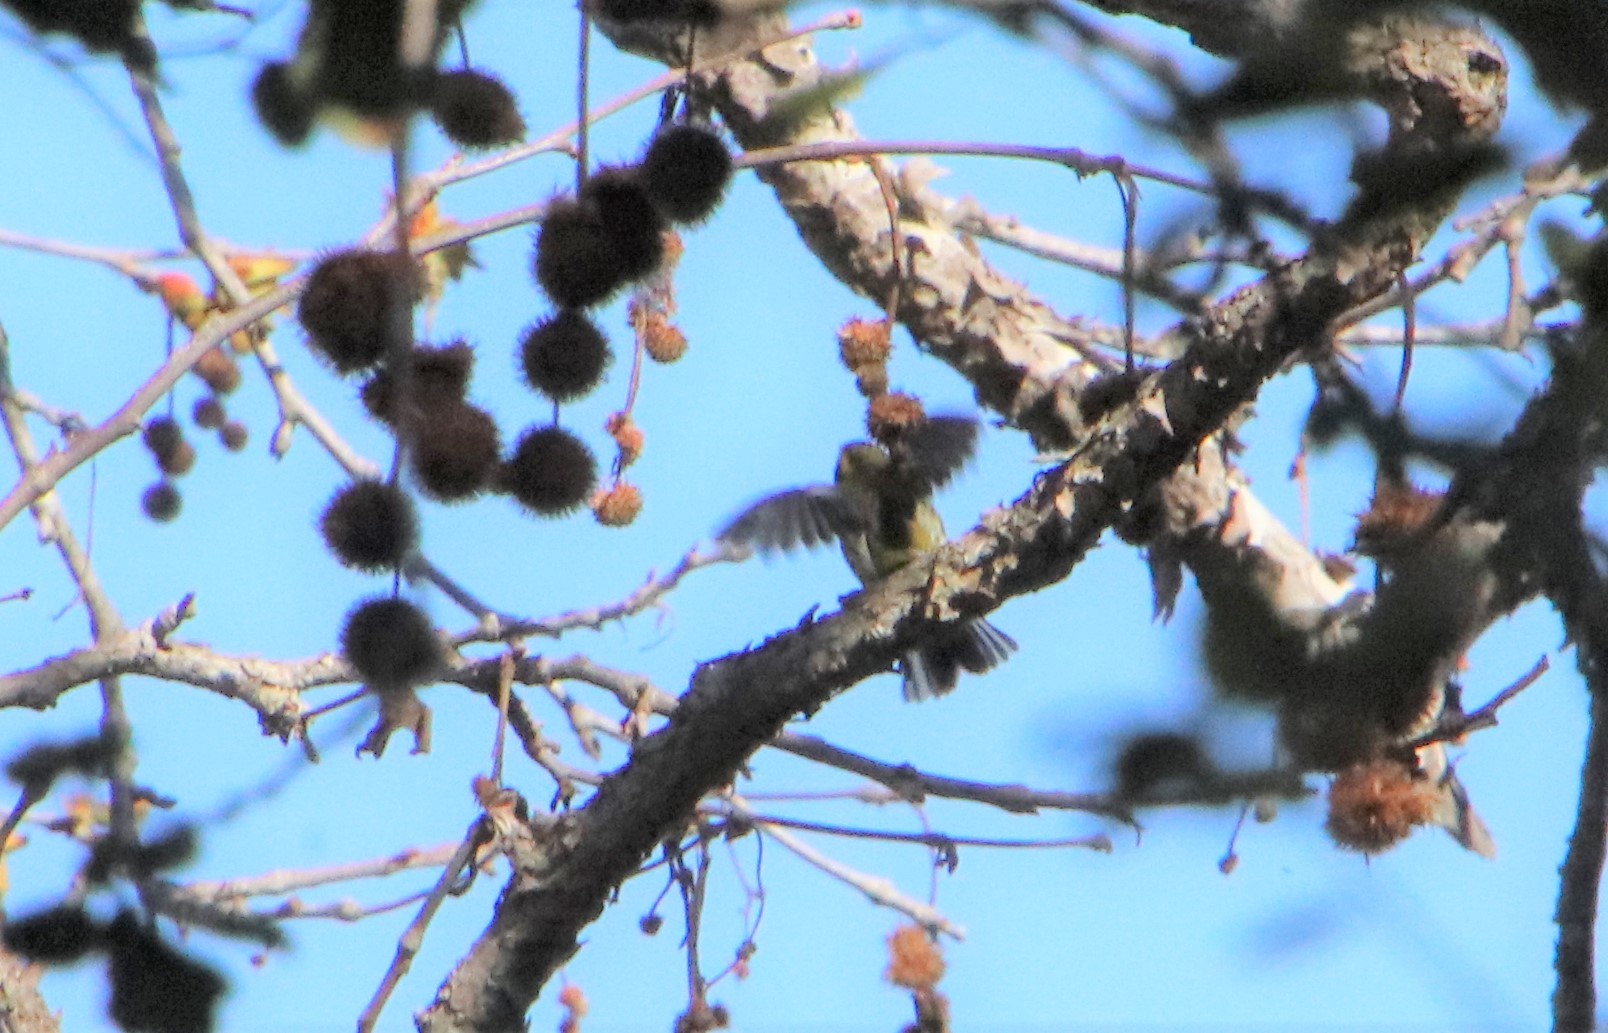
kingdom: Animalia
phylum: Chordata
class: Aves
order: Passeriformes
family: Parulidae
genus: Setophaga
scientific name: Setophaga townsendi
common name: Townsend's warbler
